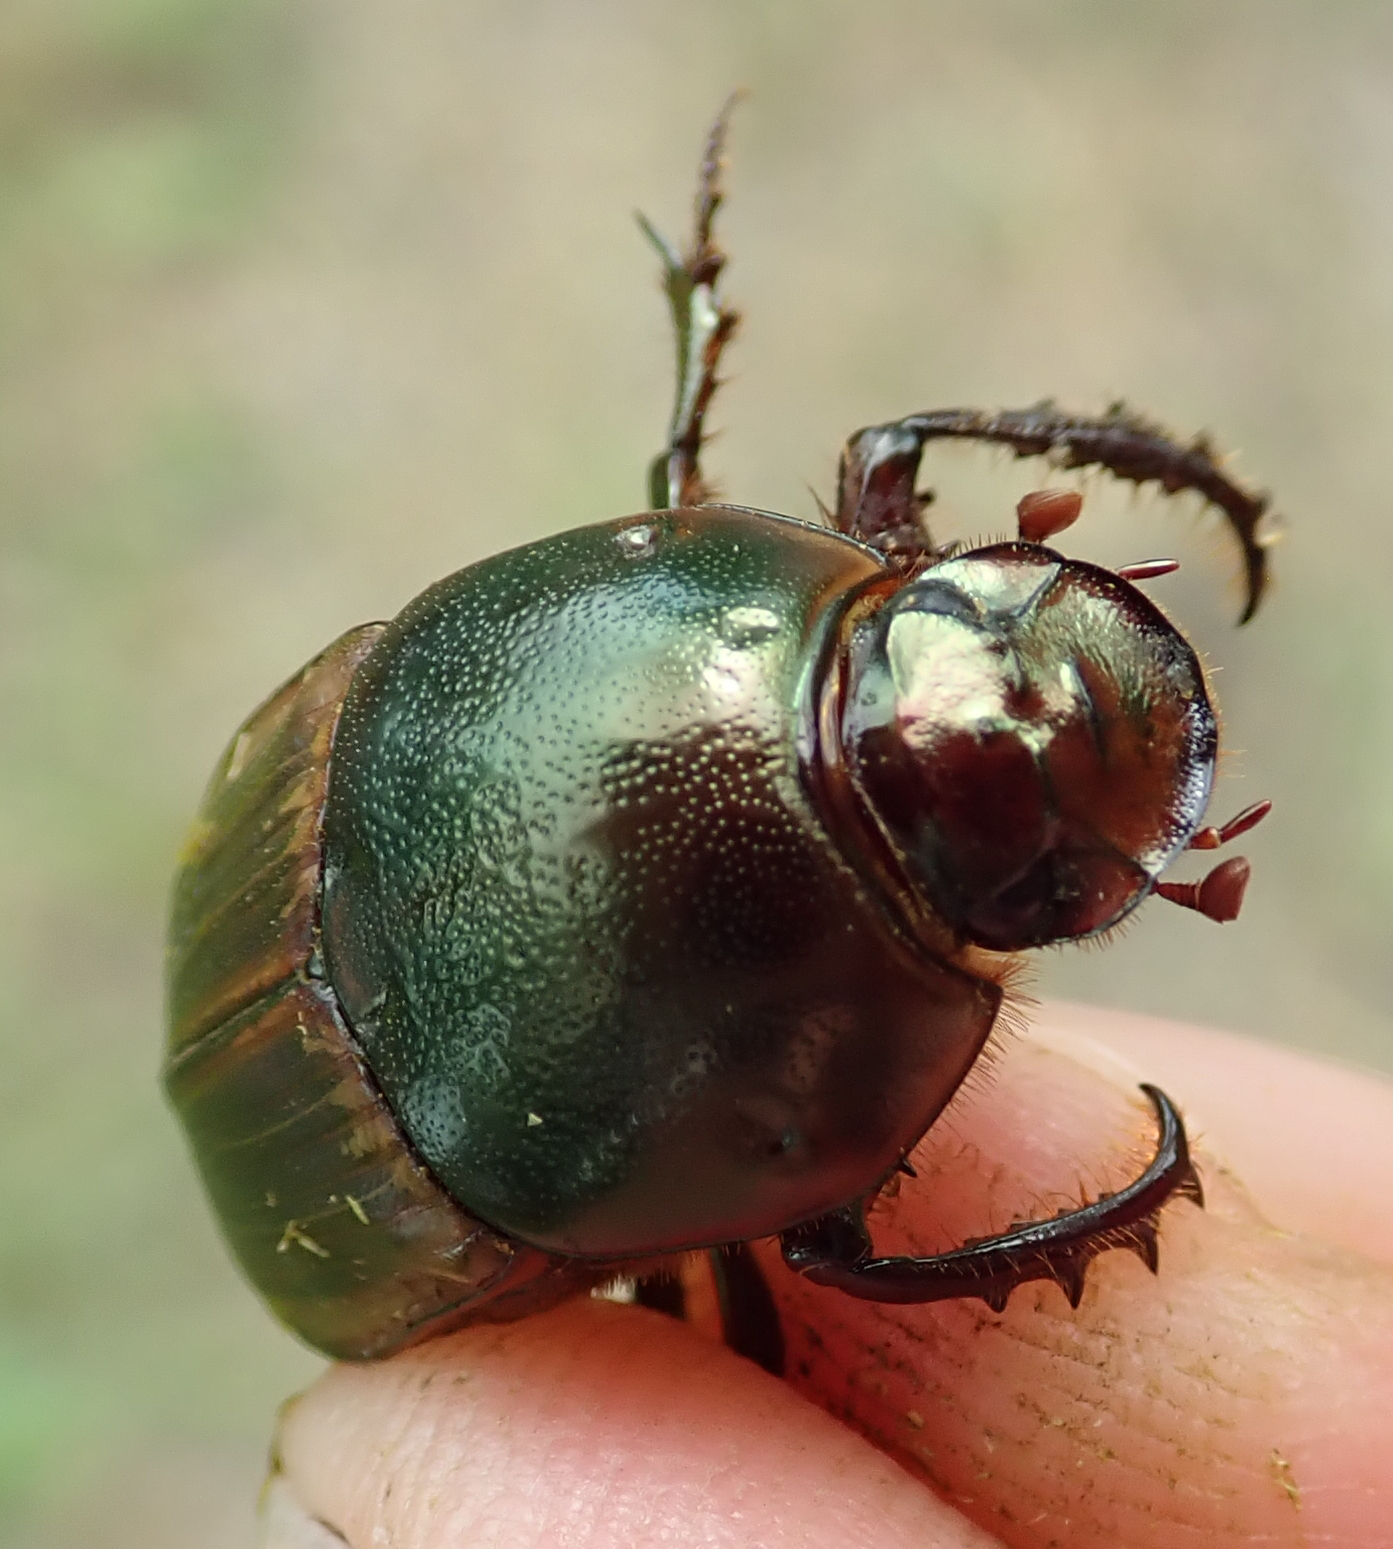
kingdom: Animalia
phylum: Arthropoda
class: Insecta
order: Coleoptera
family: Scarabaeidae
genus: Onitis
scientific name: Onitis alexis
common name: Alexis dung beetle
